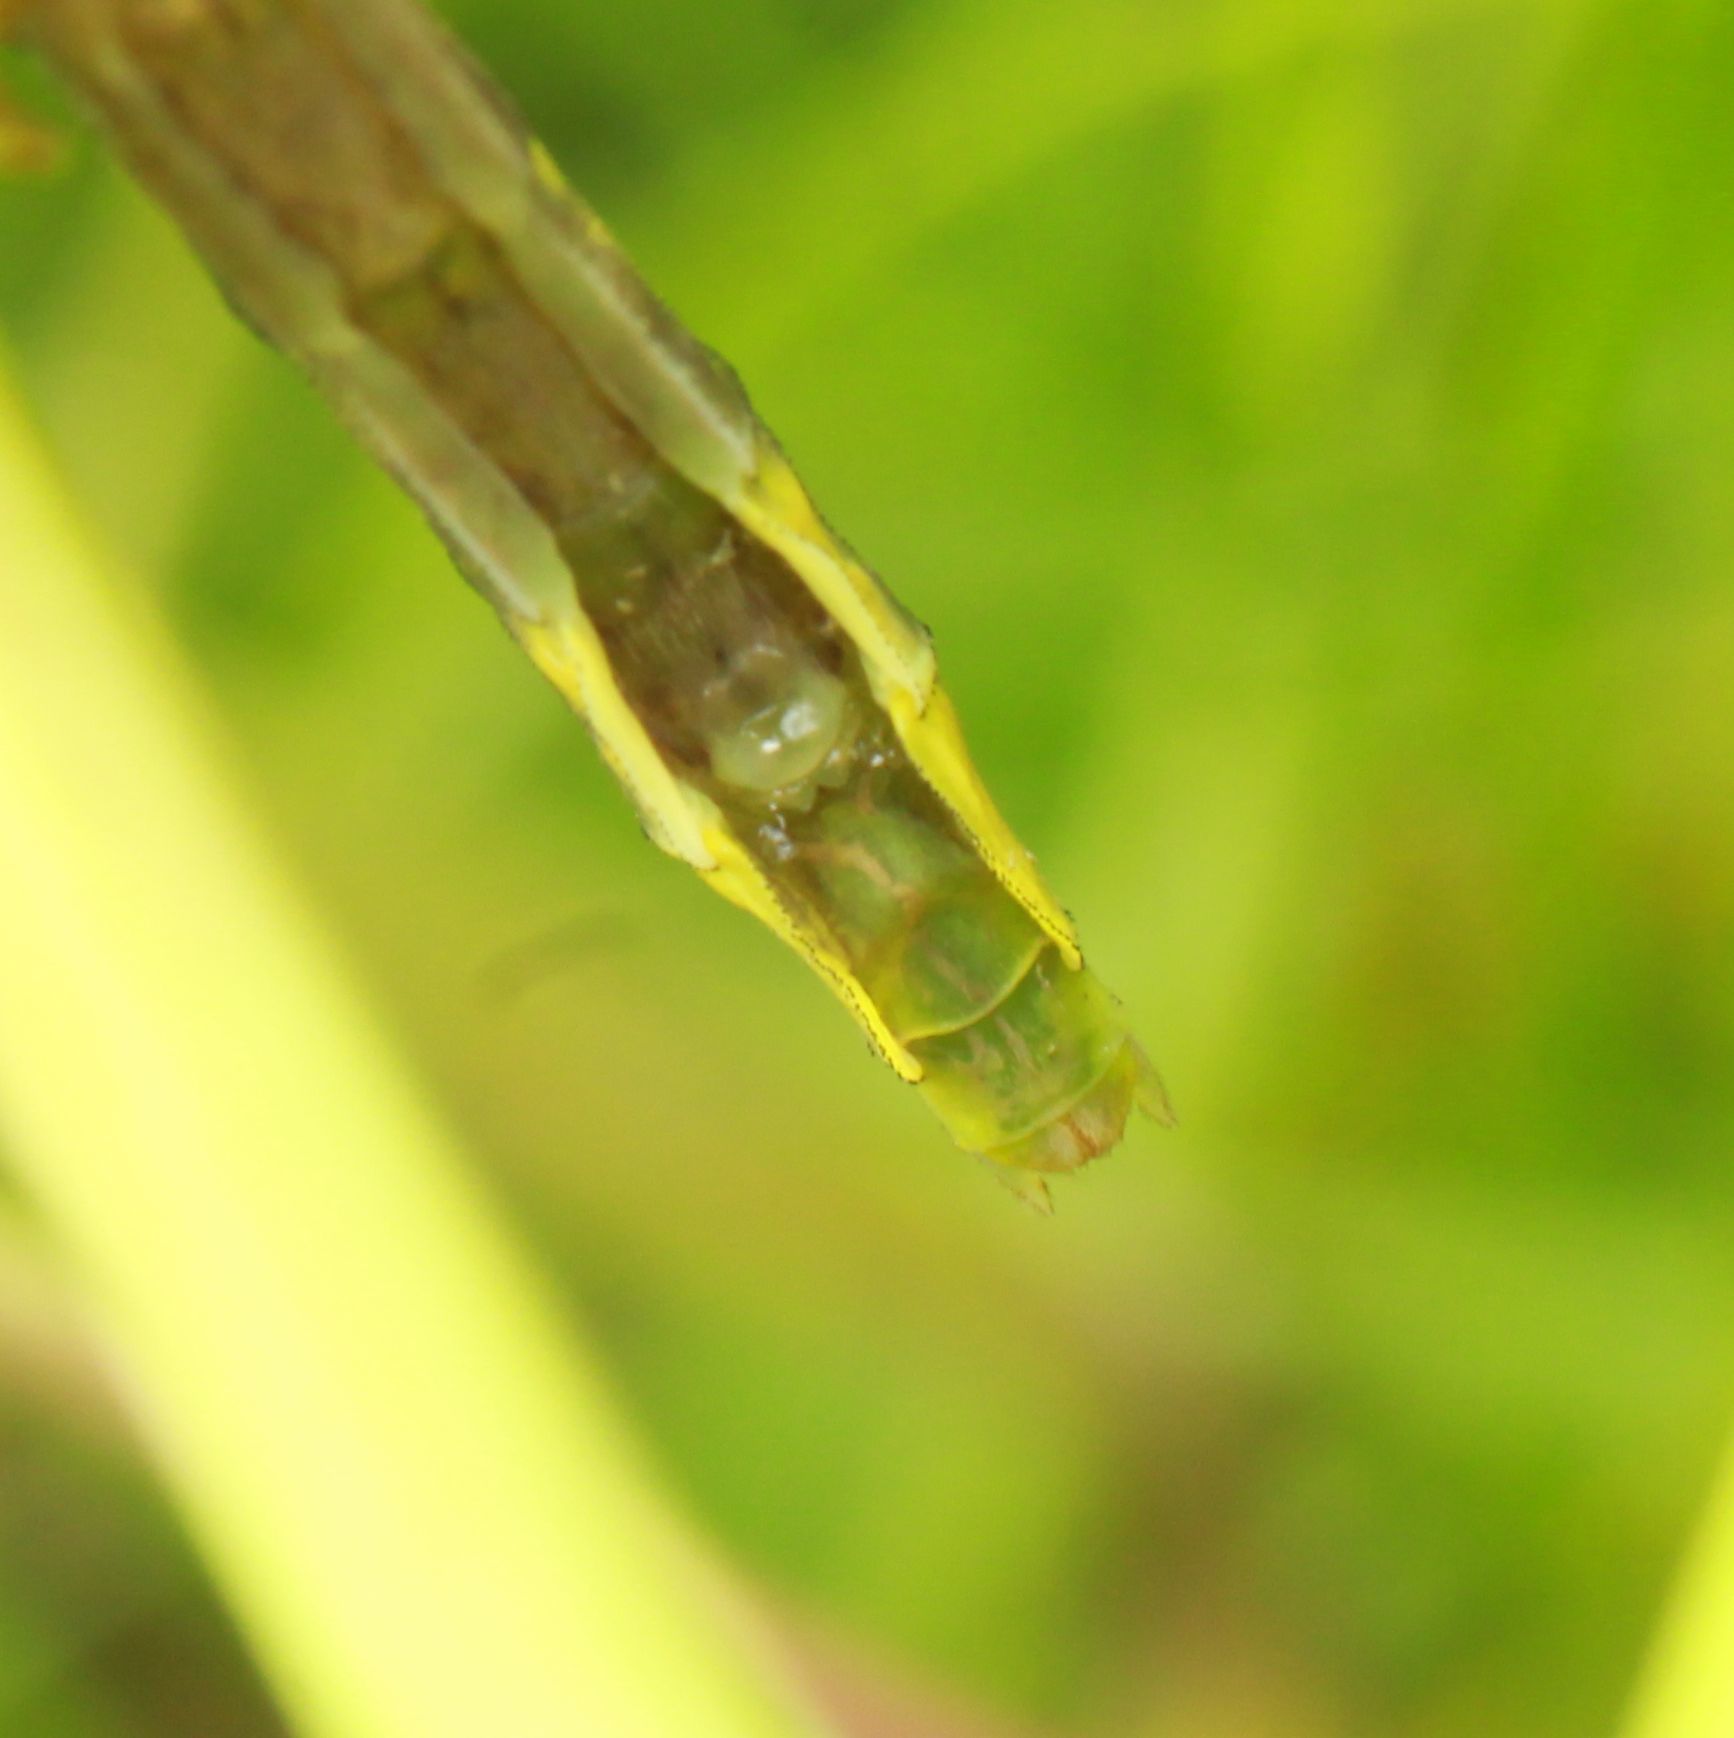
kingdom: Animalia
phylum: Arthropoda
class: Insecta
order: Odonata
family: Gomphidae
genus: Phanogomphus
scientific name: Phanogomphus graslinellus
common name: Pronghorn clubtail
